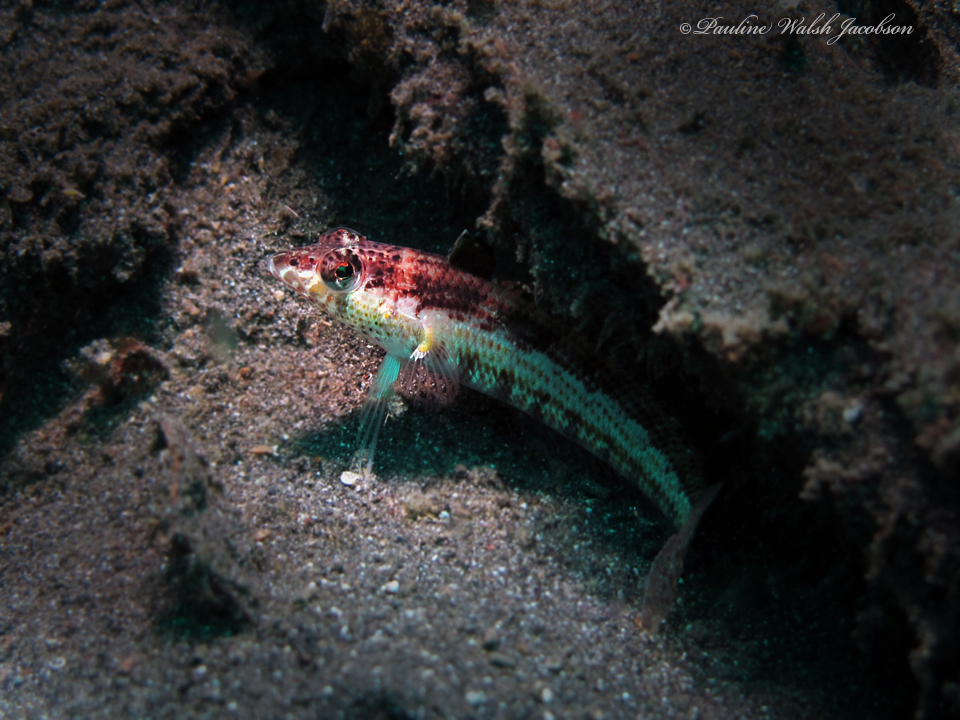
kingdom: Animalia
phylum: Chordata
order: Perciformes
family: Pinguipedidae
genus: Parapercis
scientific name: Parapercis snyderi
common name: U-mark sandperch
